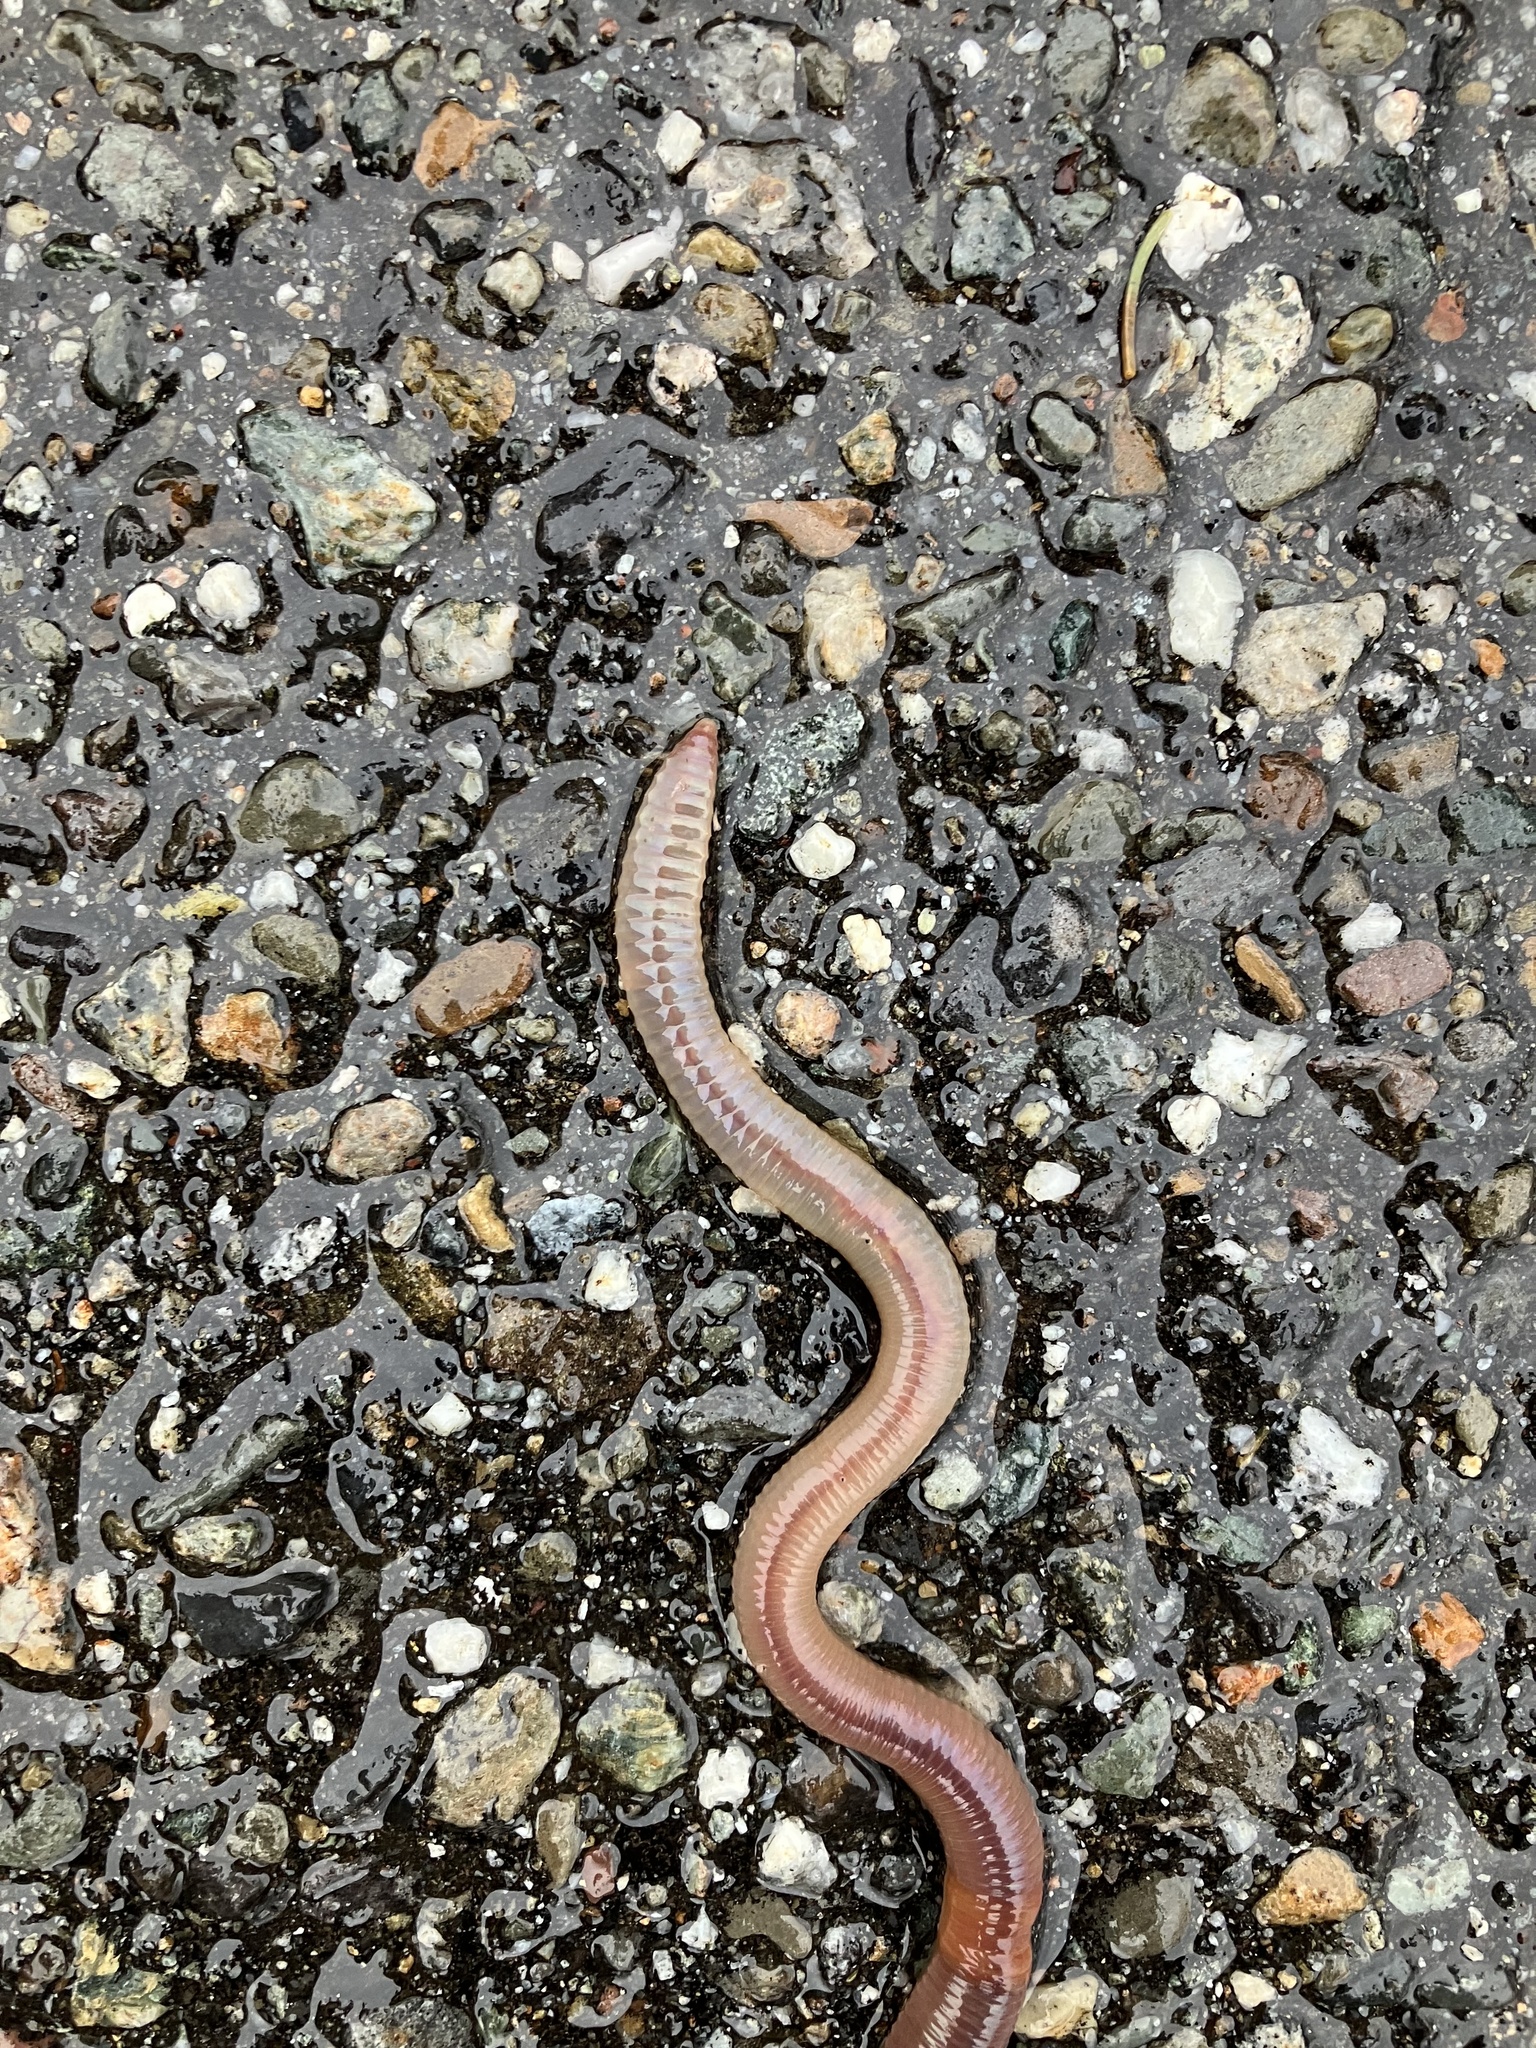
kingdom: Animalia
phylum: Annelida
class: Clitellata
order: Crassiclitellata
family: Lumbricidae
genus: Lumbricus
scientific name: Lumbricus terrestris
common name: Common earthworm
